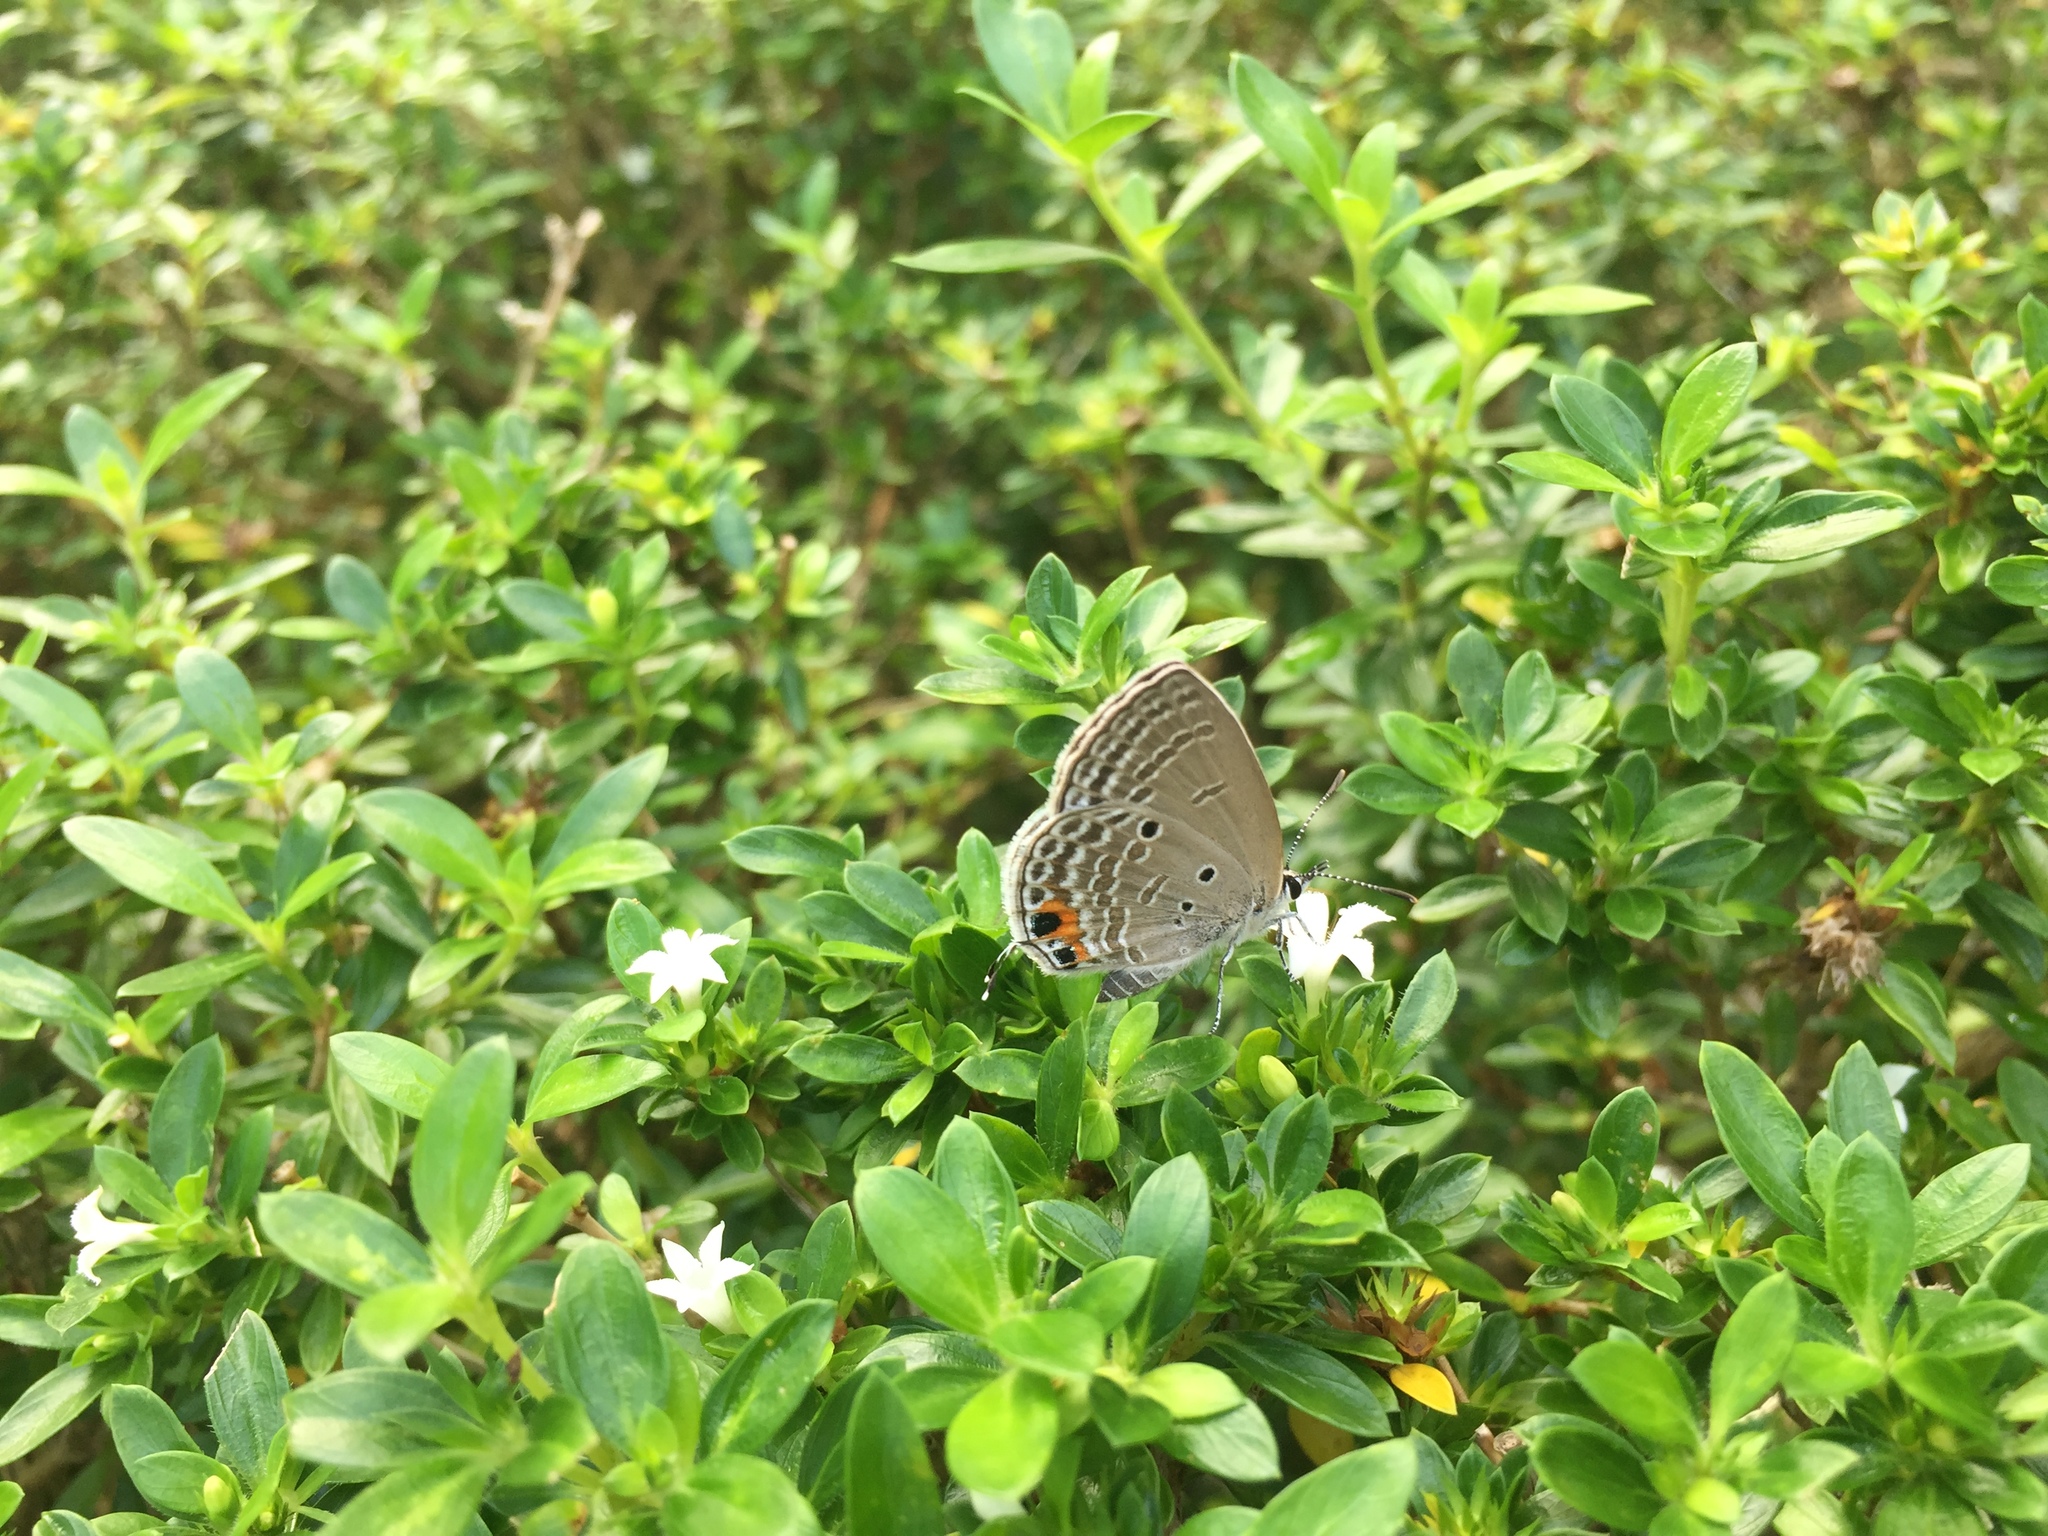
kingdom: Animalia
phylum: Arthropoda
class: Insecta
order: Lepidoptera
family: Lycaenidae
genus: Luthrodes
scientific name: Luthrodes pandava
